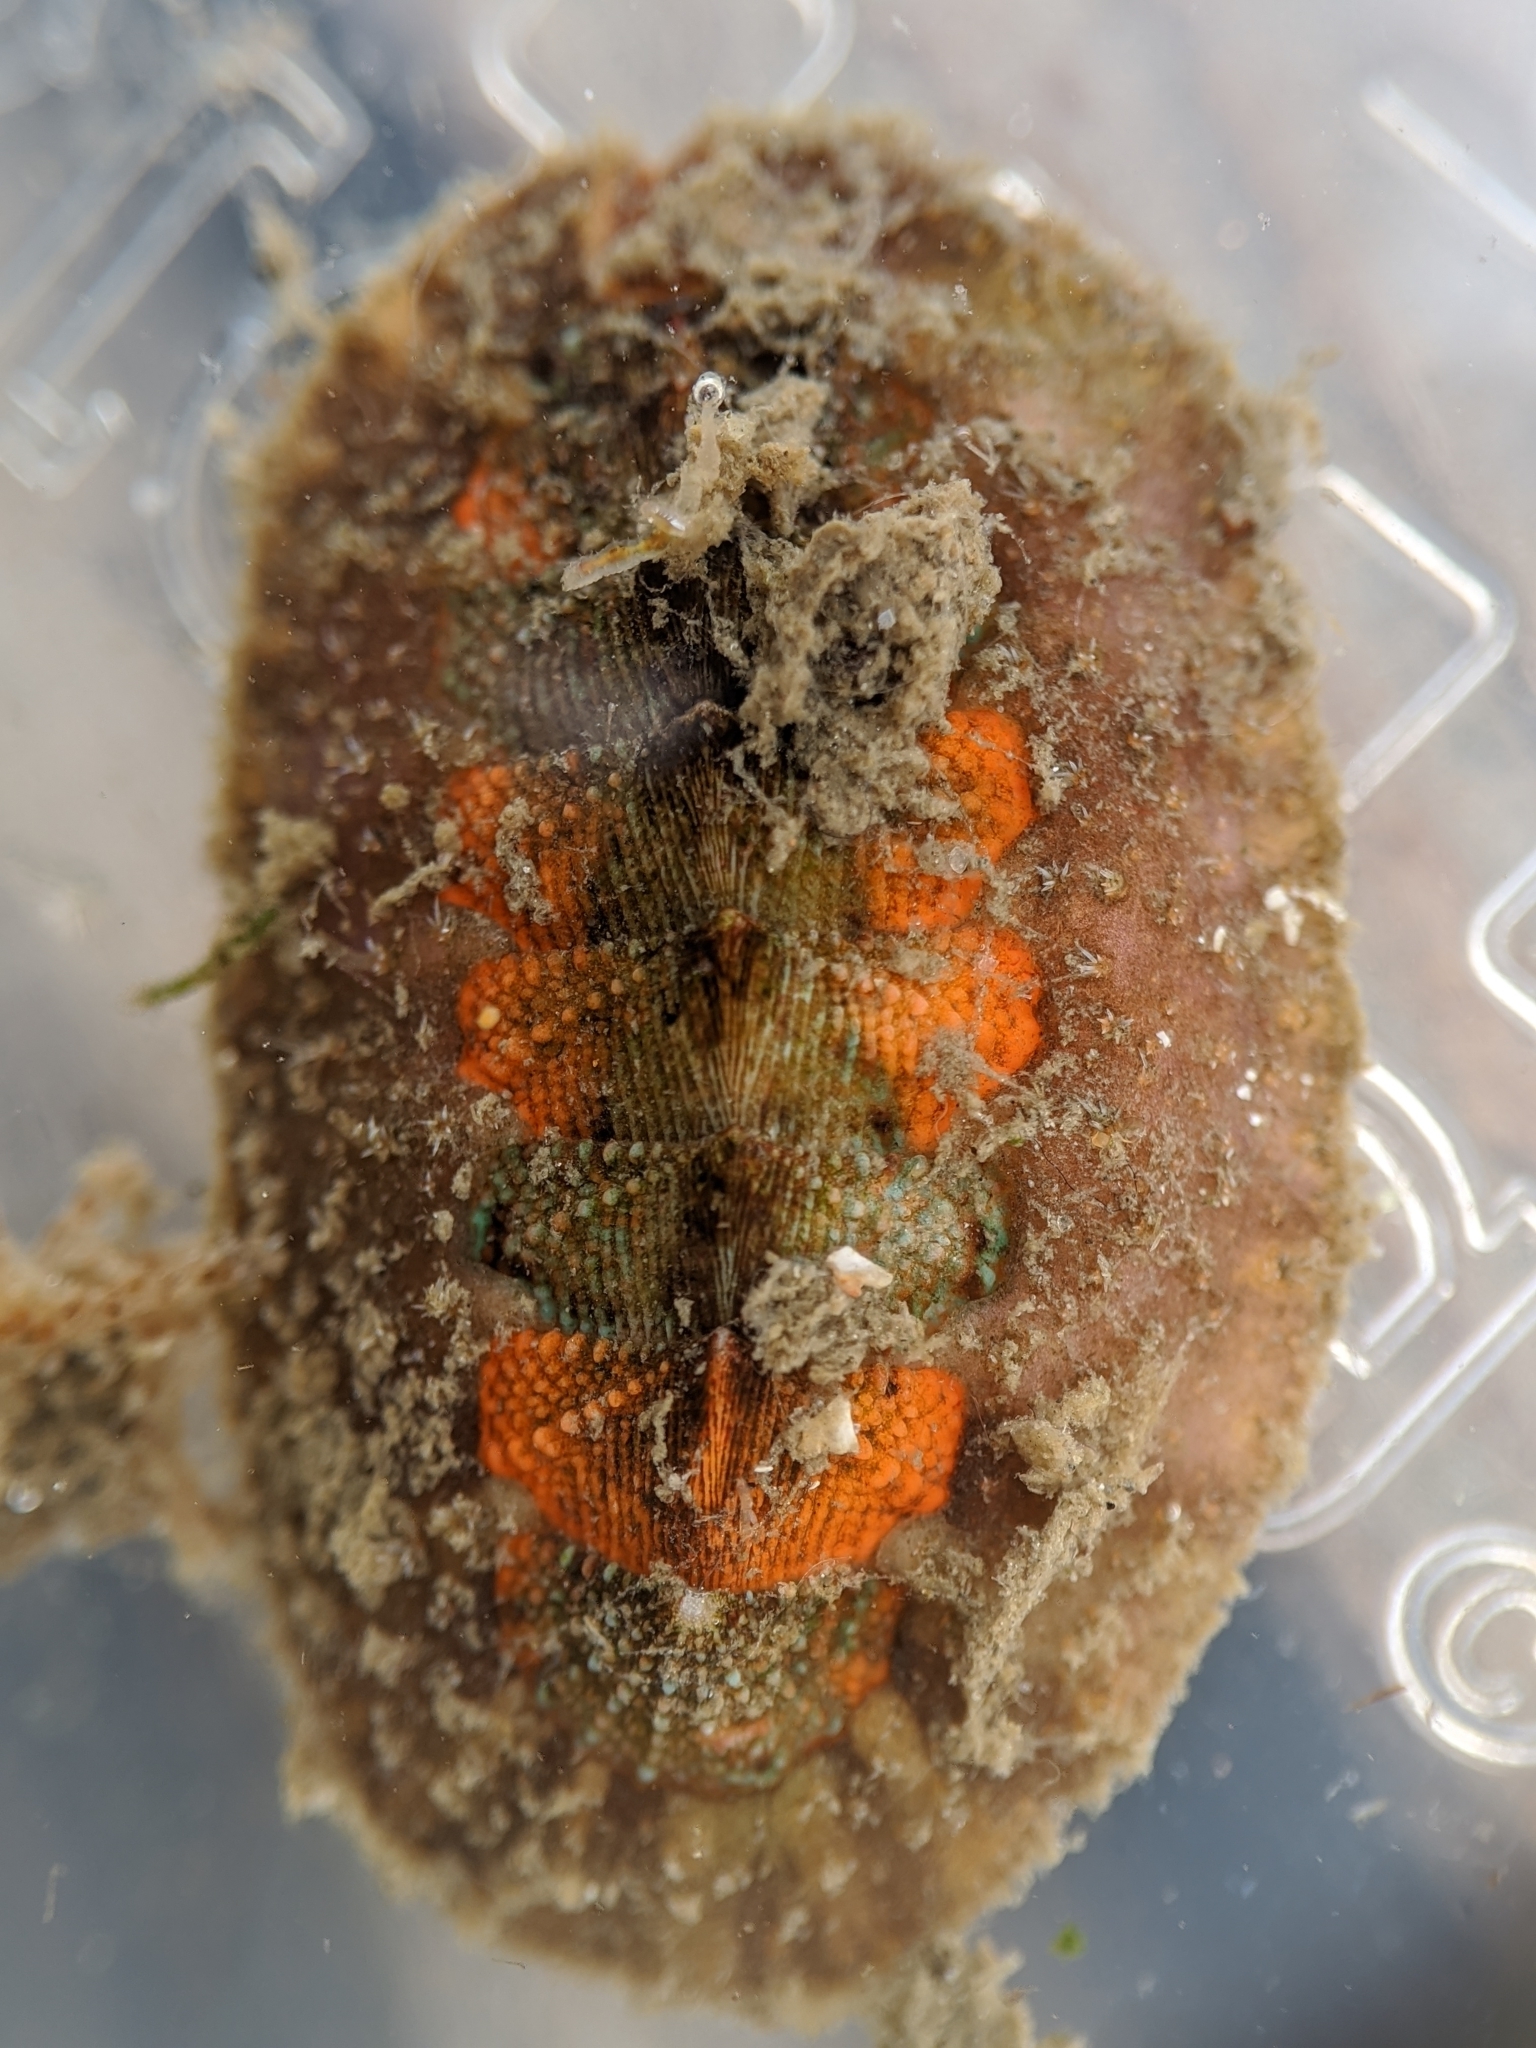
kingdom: Animalia
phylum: Mollusca
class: Polyplacophora
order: Chitonida
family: Mopaliidae
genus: Mopalia
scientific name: Mopalia ciliata
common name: Hairy chiton
